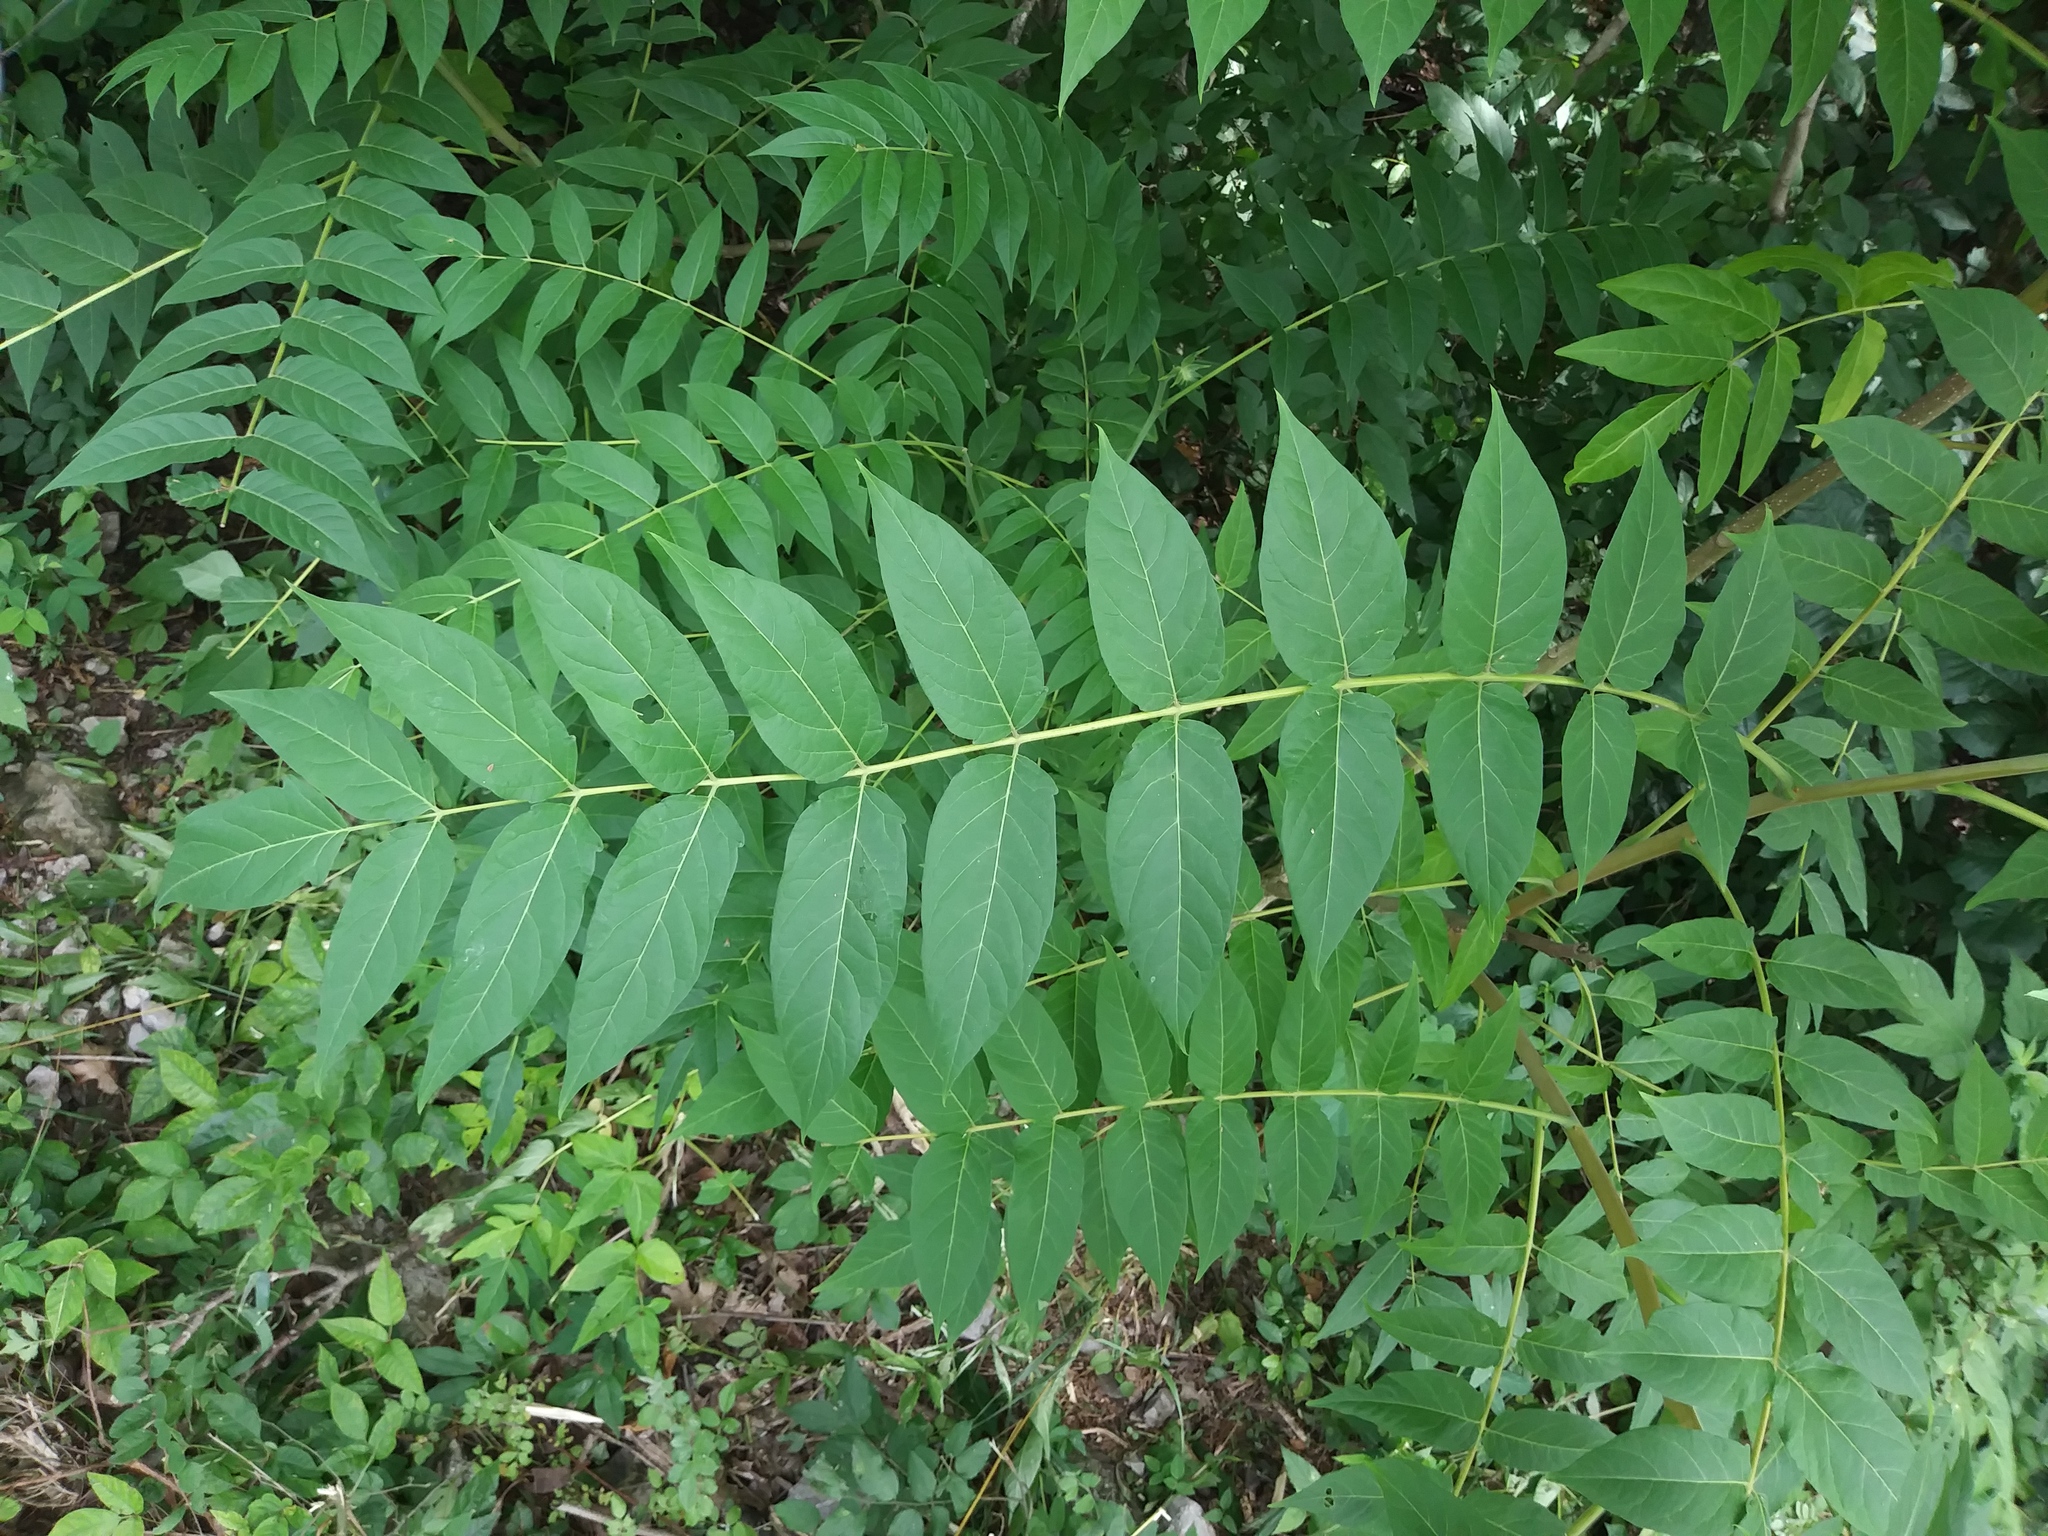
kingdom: Plantae
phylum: Tracheophyta
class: Magnoliopsida
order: Sapindales
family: Simaroubaceae
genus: Ailanthus
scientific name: Ailanthus altissima
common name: Tree-of-heaven
